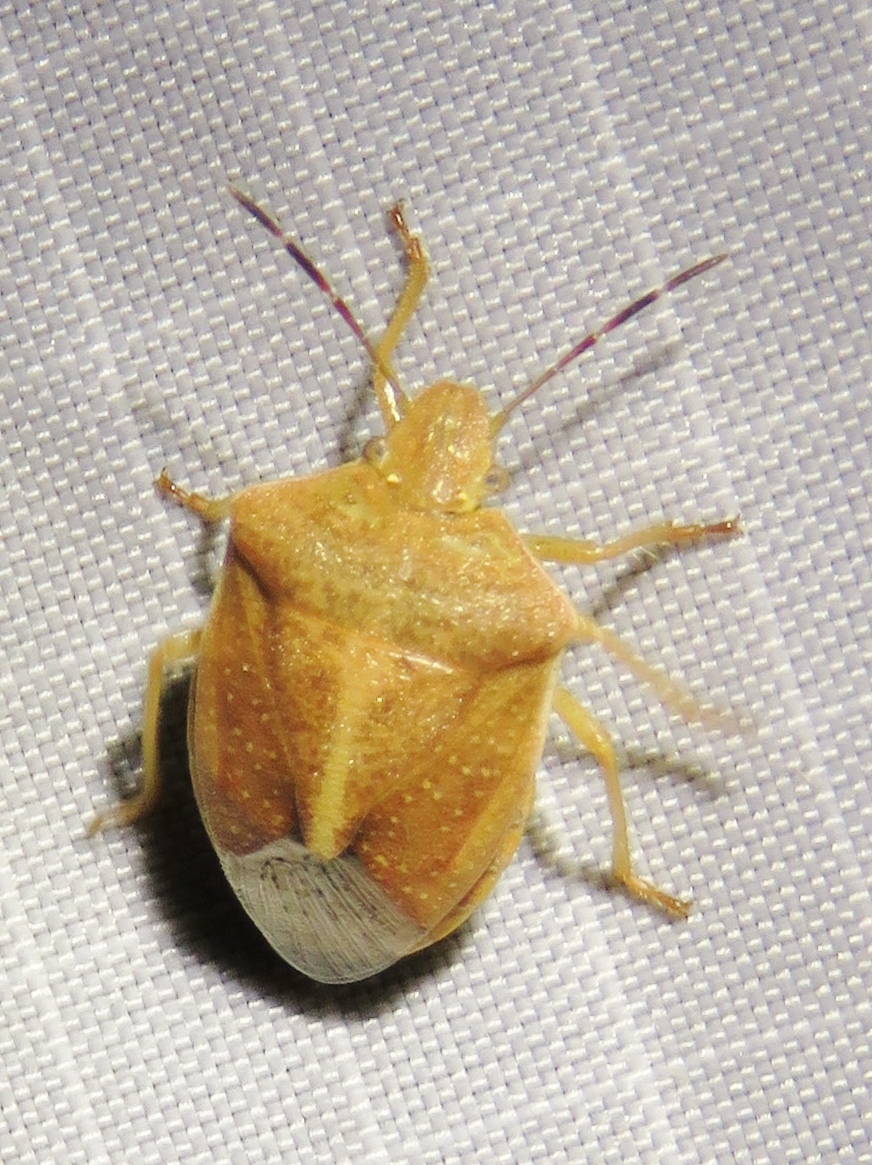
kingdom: Animalia
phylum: Arthropoda
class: Insecta
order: Hemiptera
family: Pentatomidae
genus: Thyanta
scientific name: Thyanta custator
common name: Stink bug
